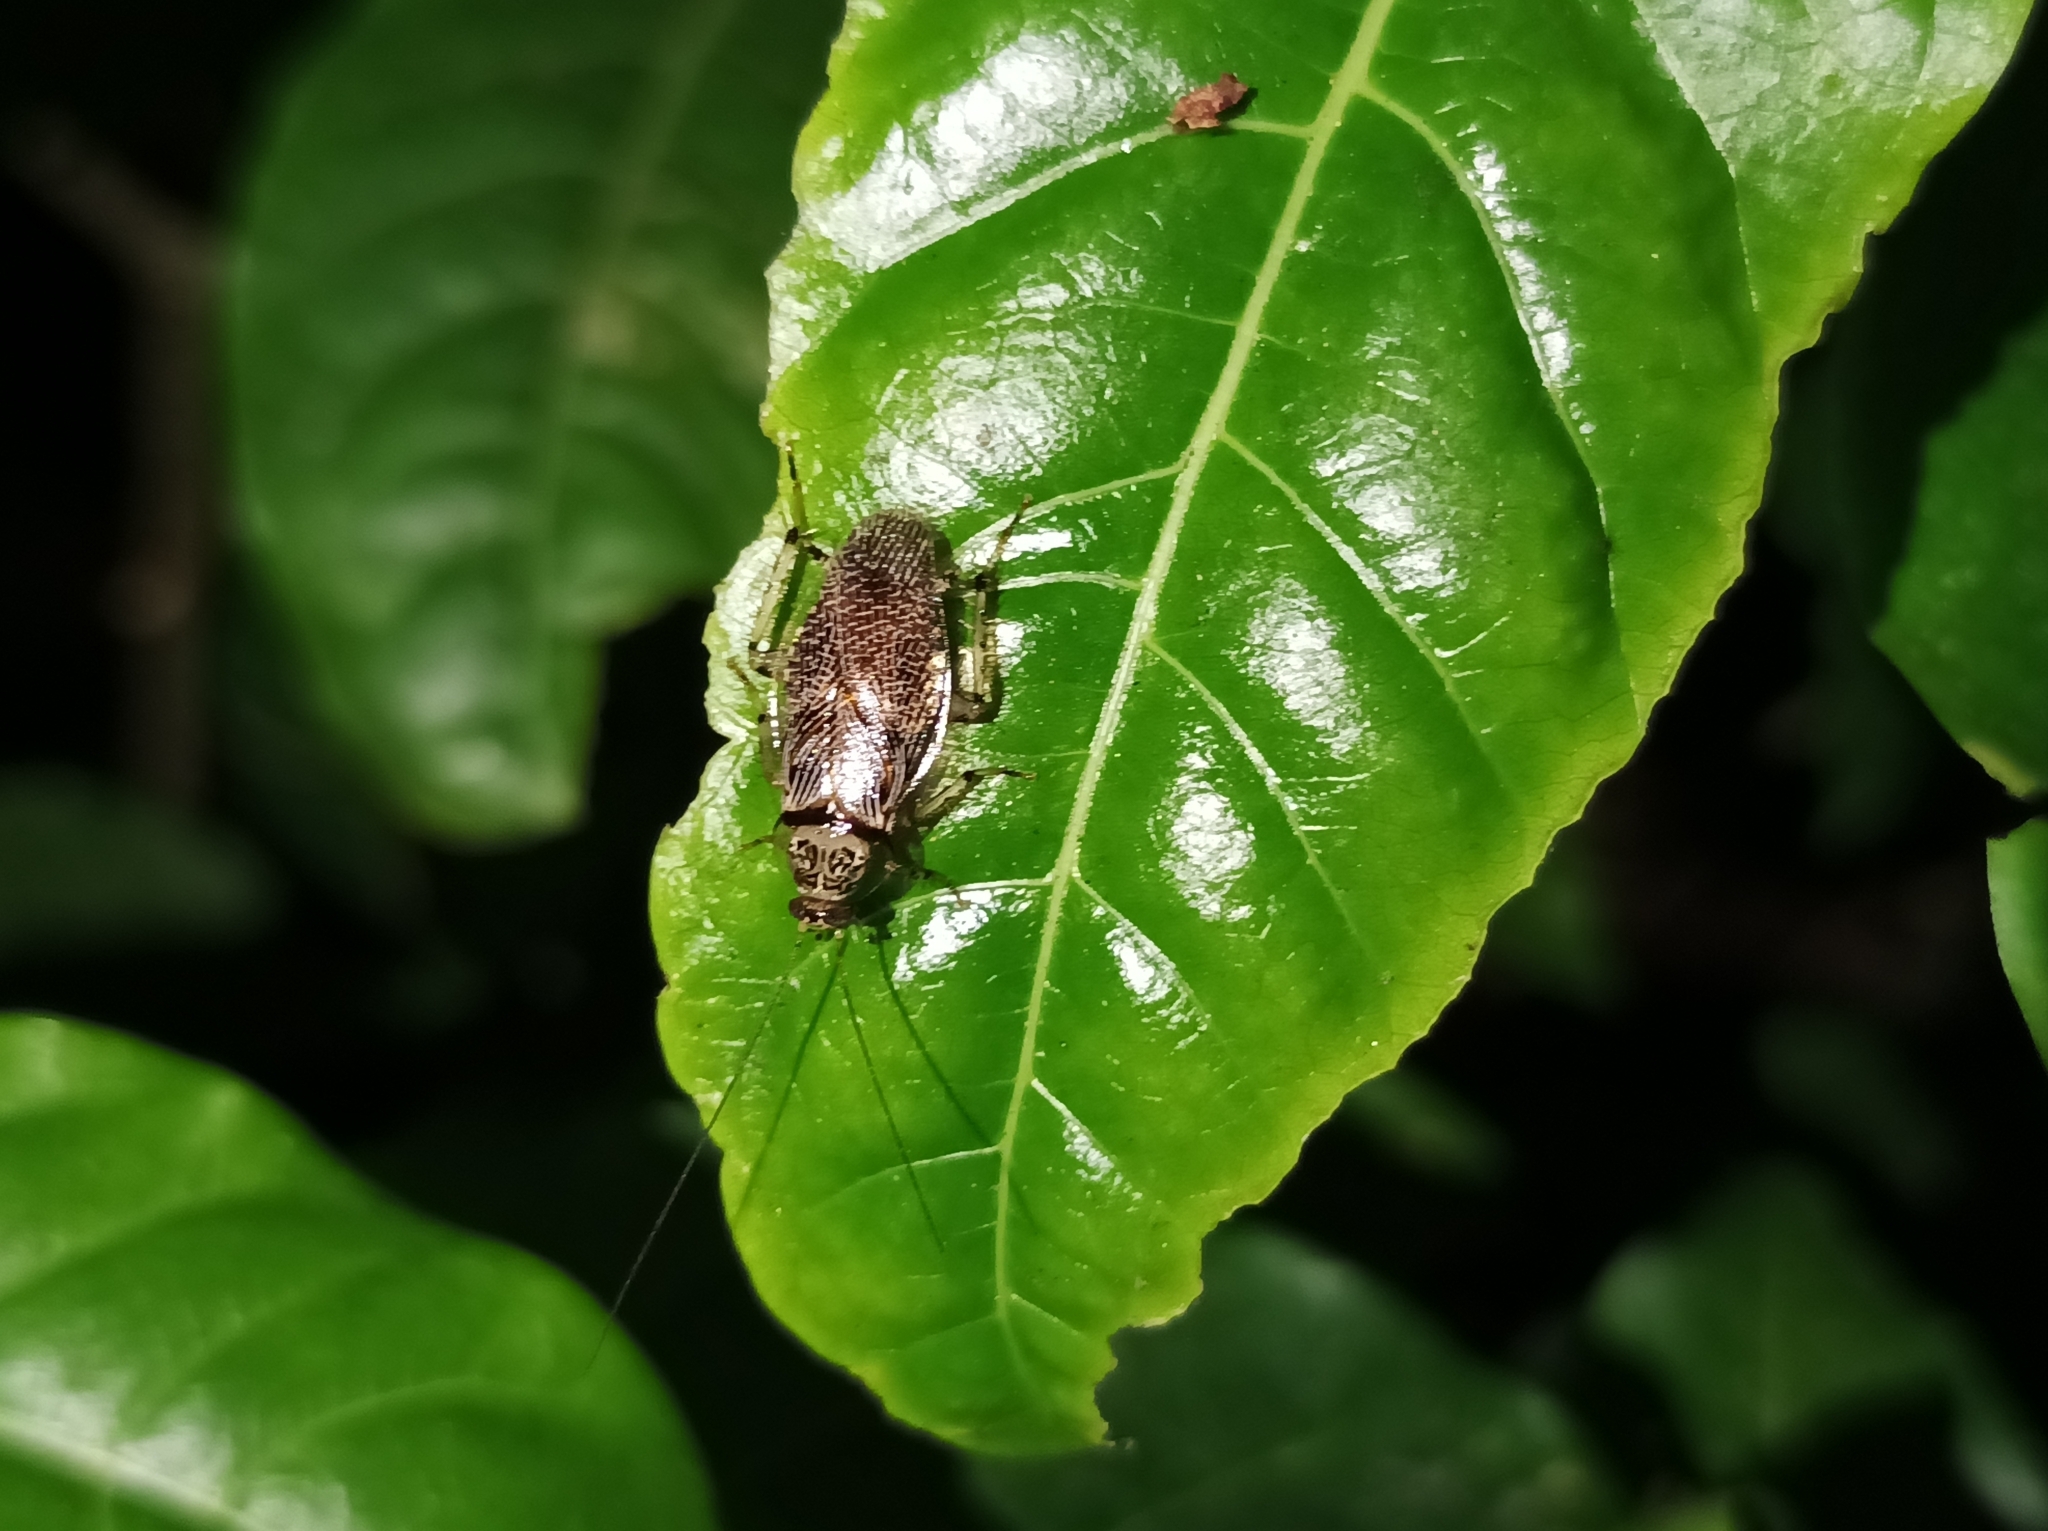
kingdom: Animalia
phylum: Arthropoda
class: Insecta
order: Blattodea
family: Ectobiidae
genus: Balta
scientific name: Balta notulata
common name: Cockroach
